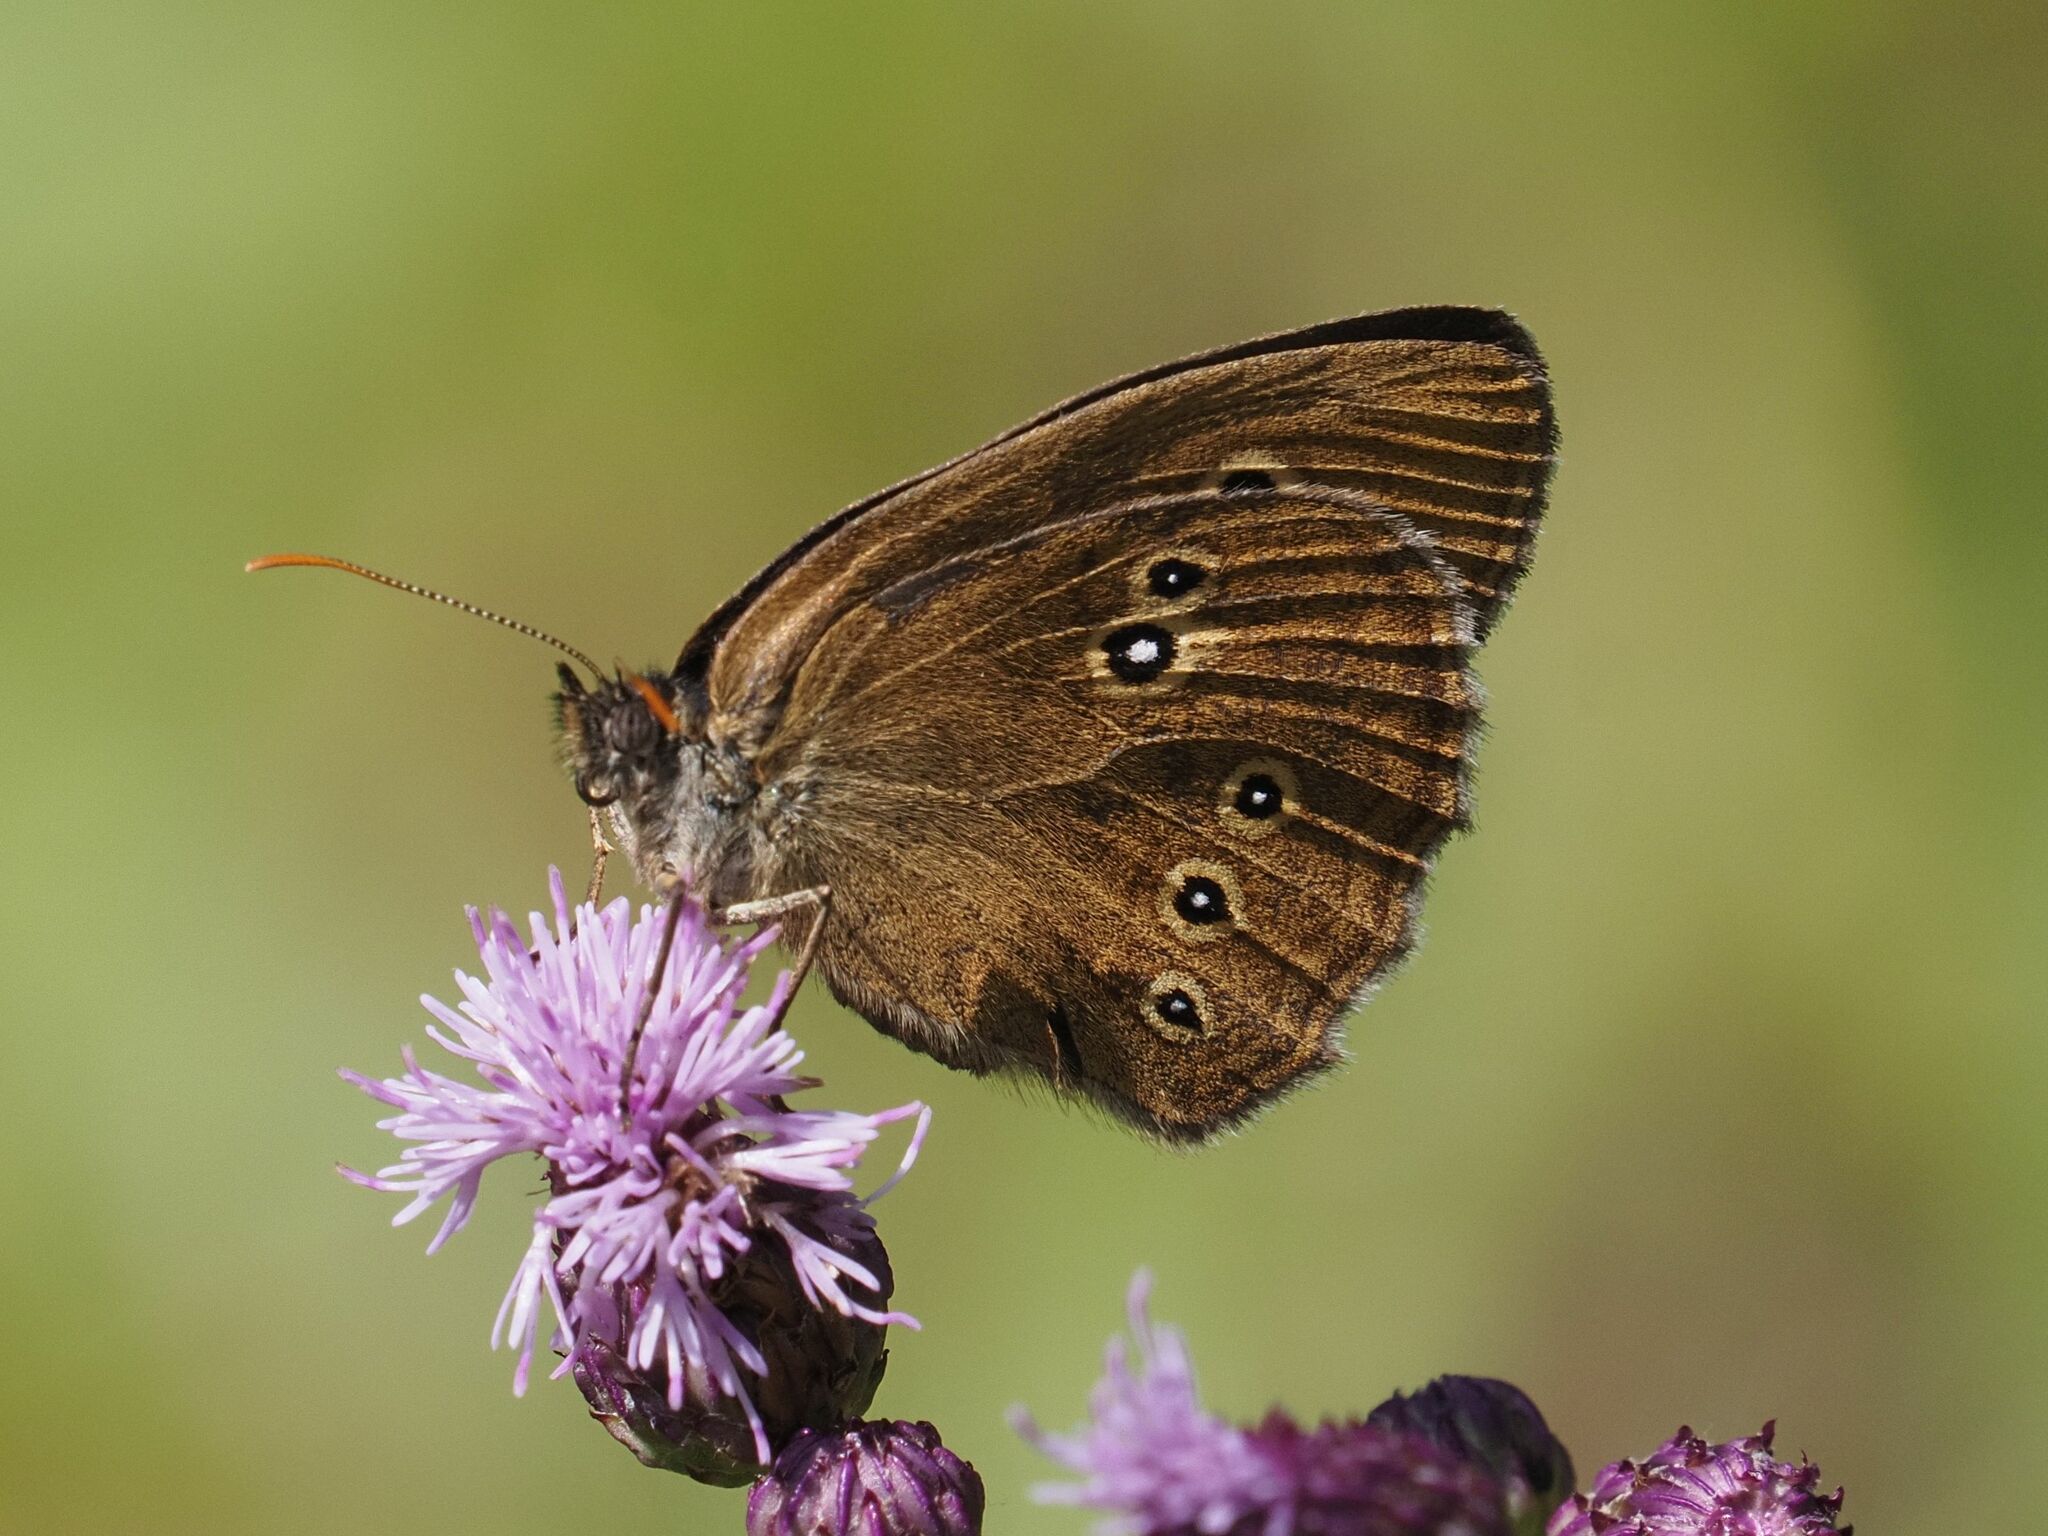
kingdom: Animalia
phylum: Arthropoda
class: Insecta
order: Lepidoptera
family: Nymphalidae
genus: Aphantopus
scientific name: Aphantopus hyperantus
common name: Ringlet
